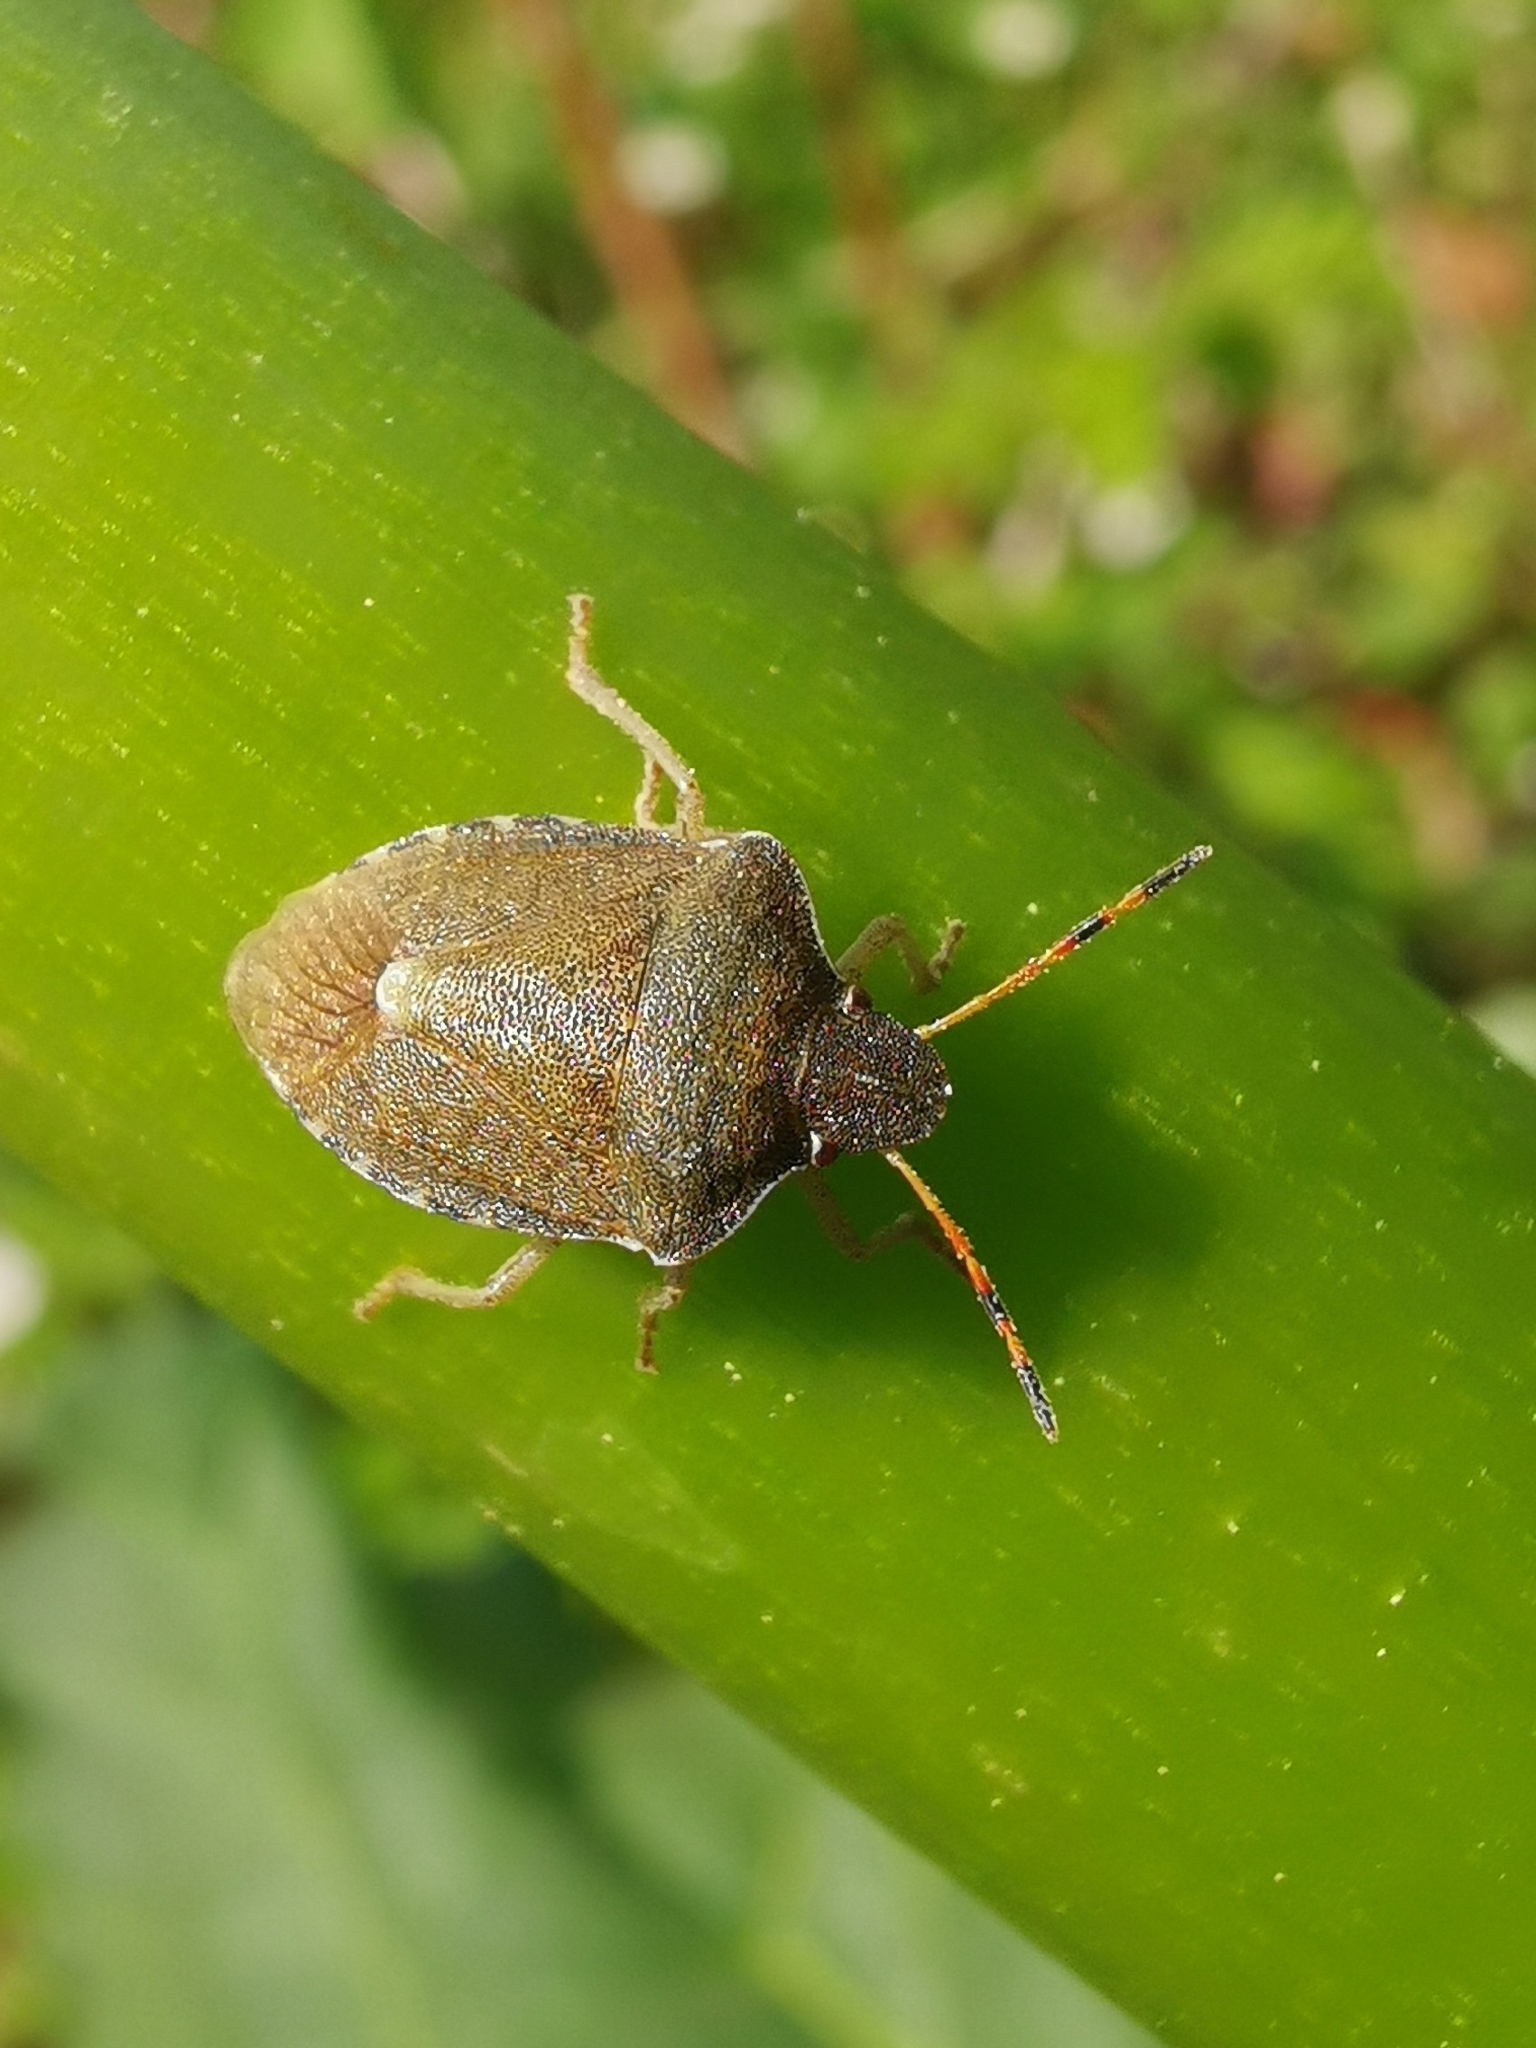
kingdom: Animalia
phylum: Arthropoda
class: Insecta
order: Hemiptera
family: Pentatomidae
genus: Holcostethus
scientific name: Holcostethus strictus
